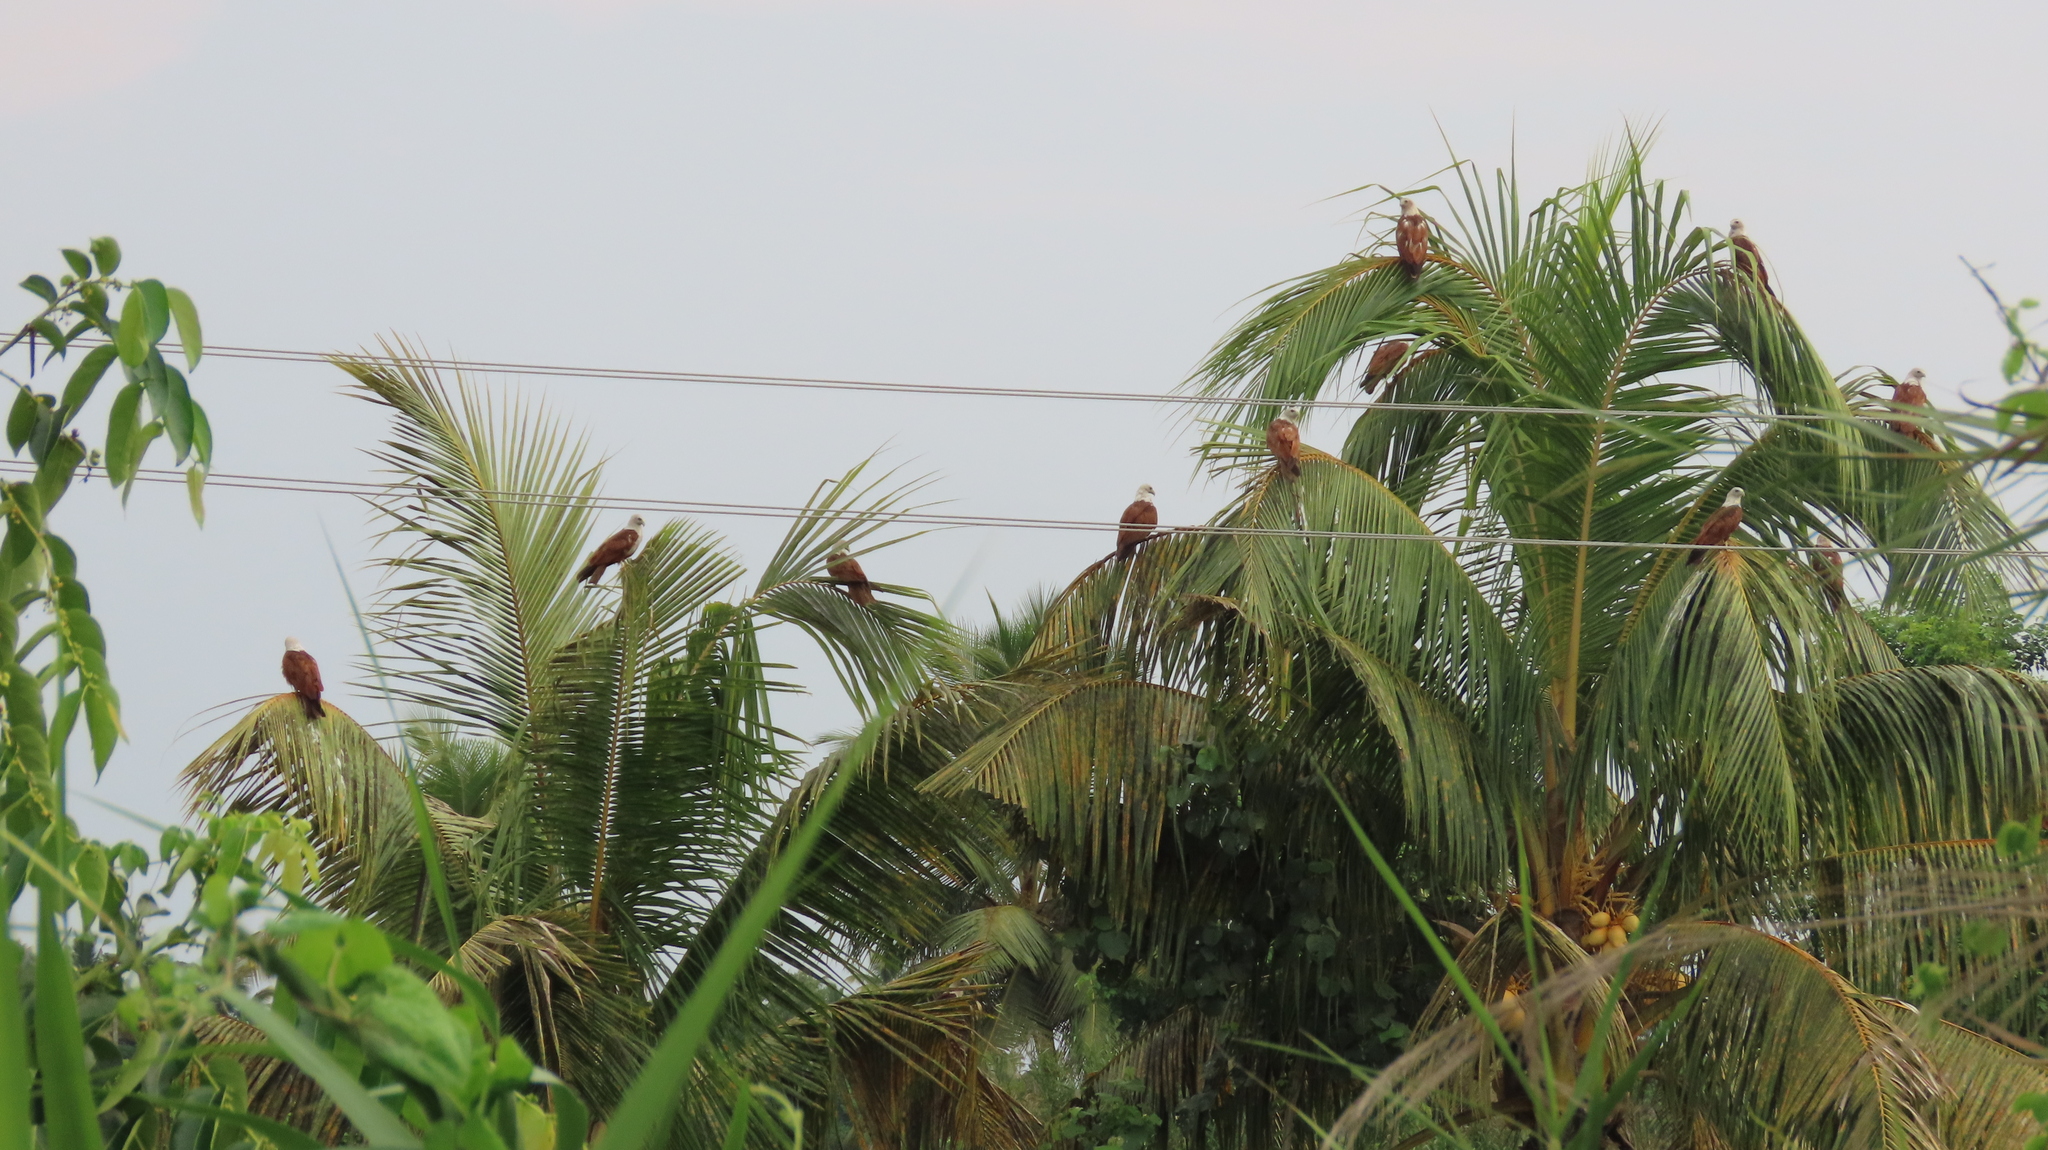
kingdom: Animalia
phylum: Chordata
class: Aves
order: Accipitriformes
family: Accipitridae
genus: Haliastur
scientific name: Haliastur indus
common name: Brahminy kite
